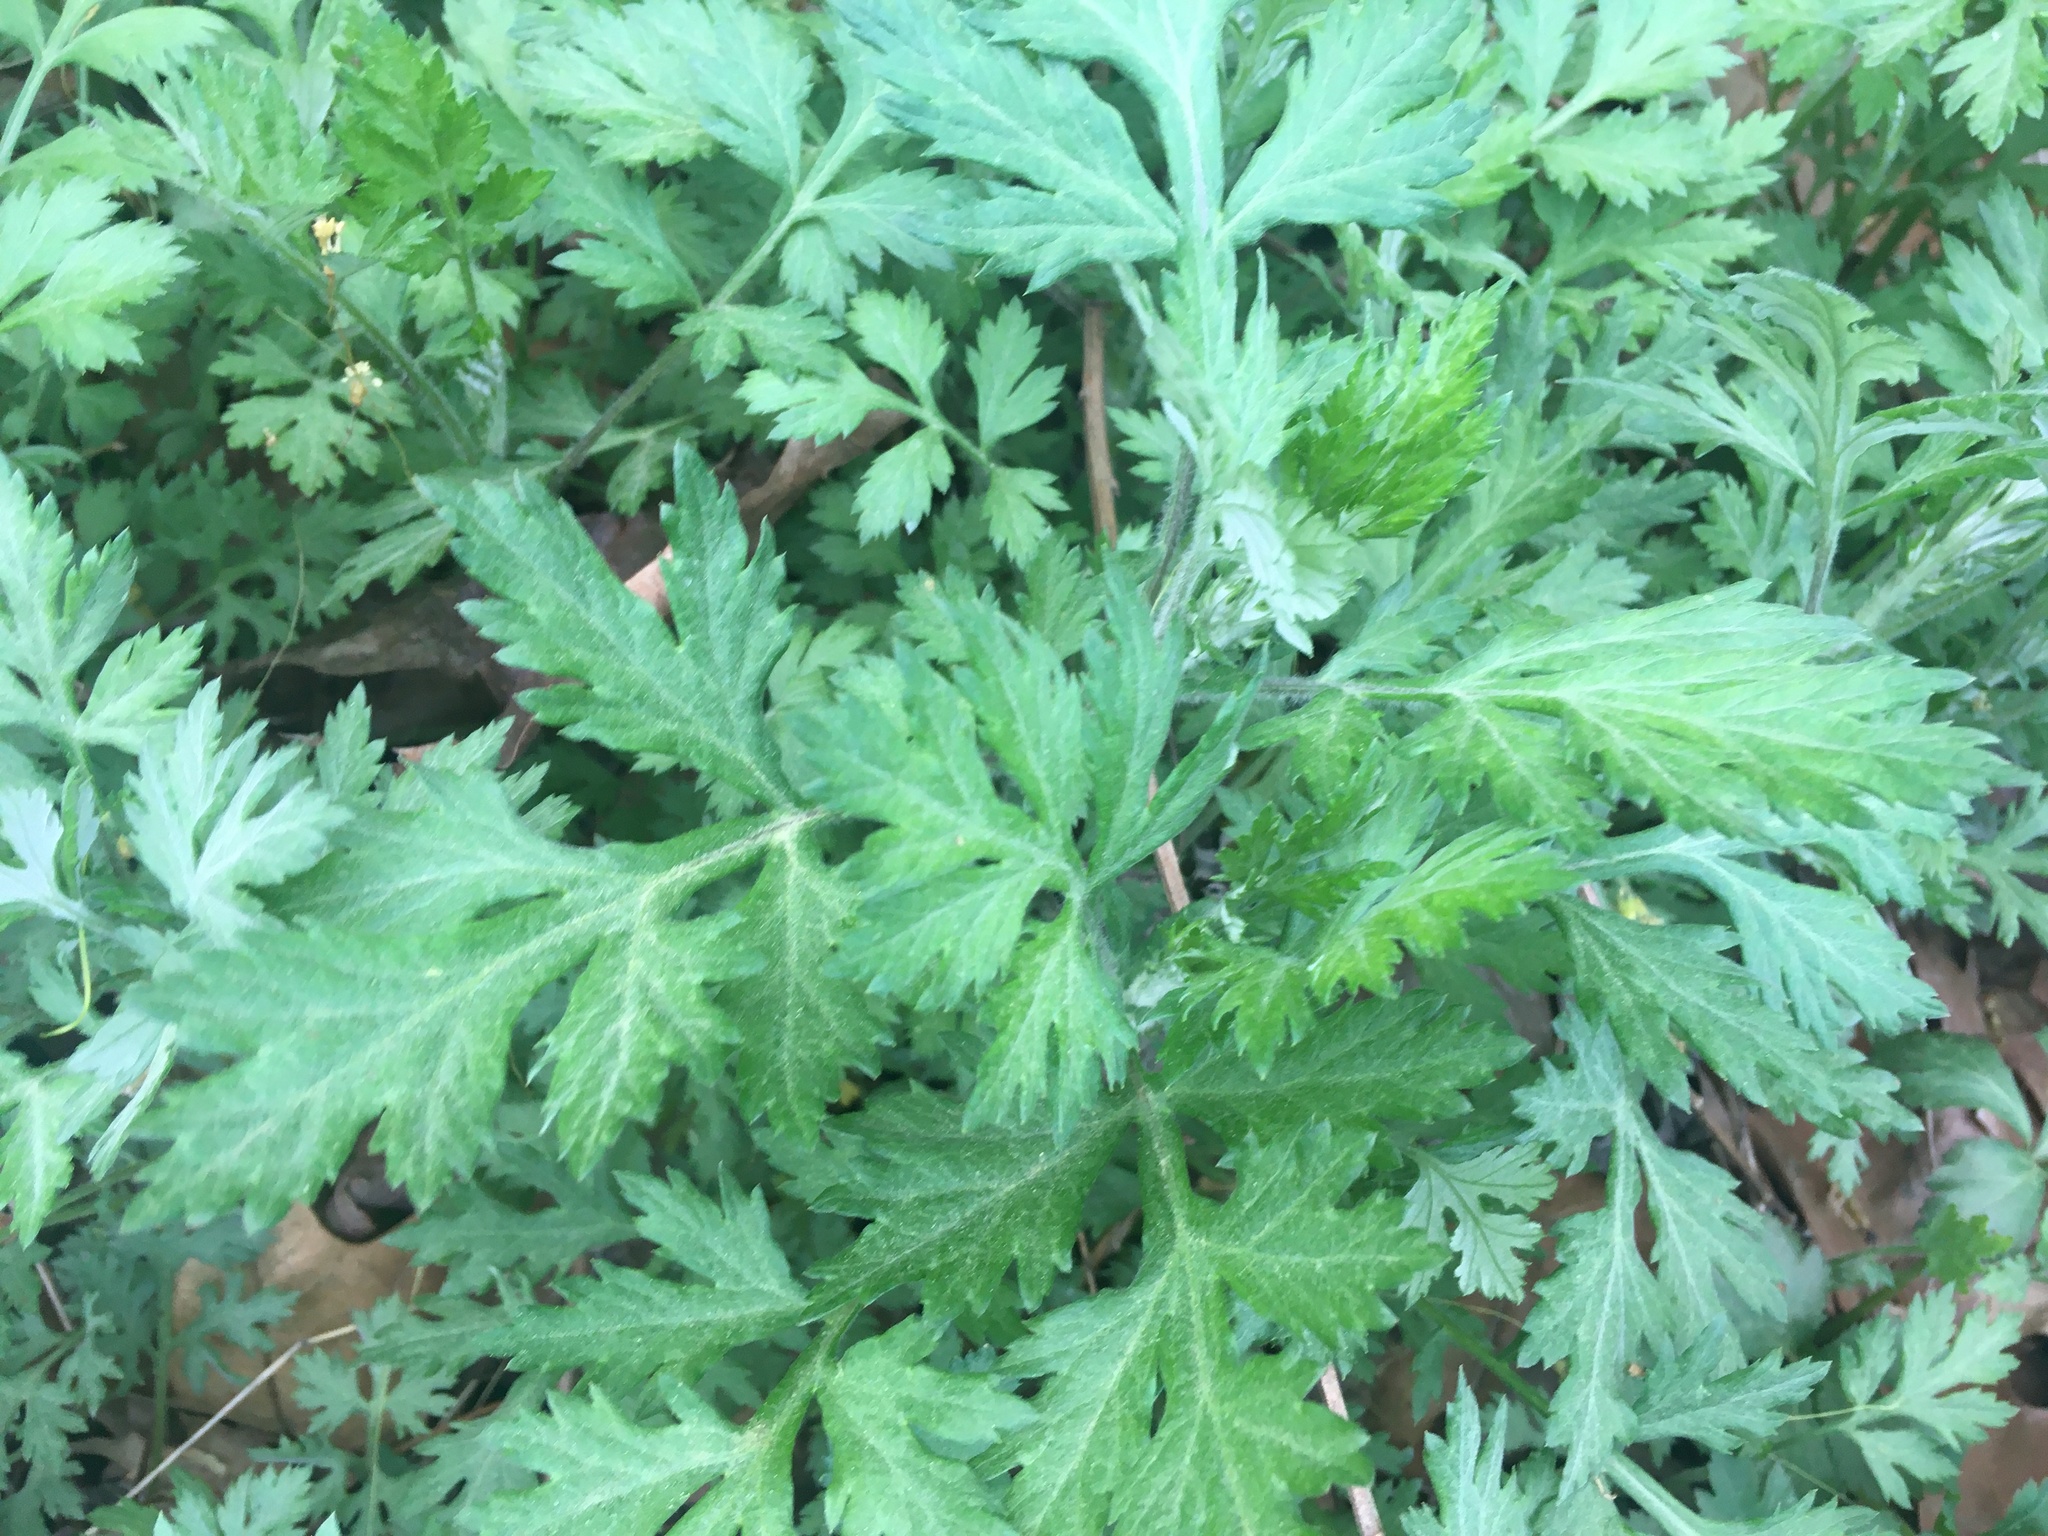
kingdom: Plantae
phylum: Tracheophyta
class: Magnoliopsida
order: Asterales
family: Asteraceae
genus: Artemisia
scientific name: Artemisia vulgaris
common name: Mugwort
